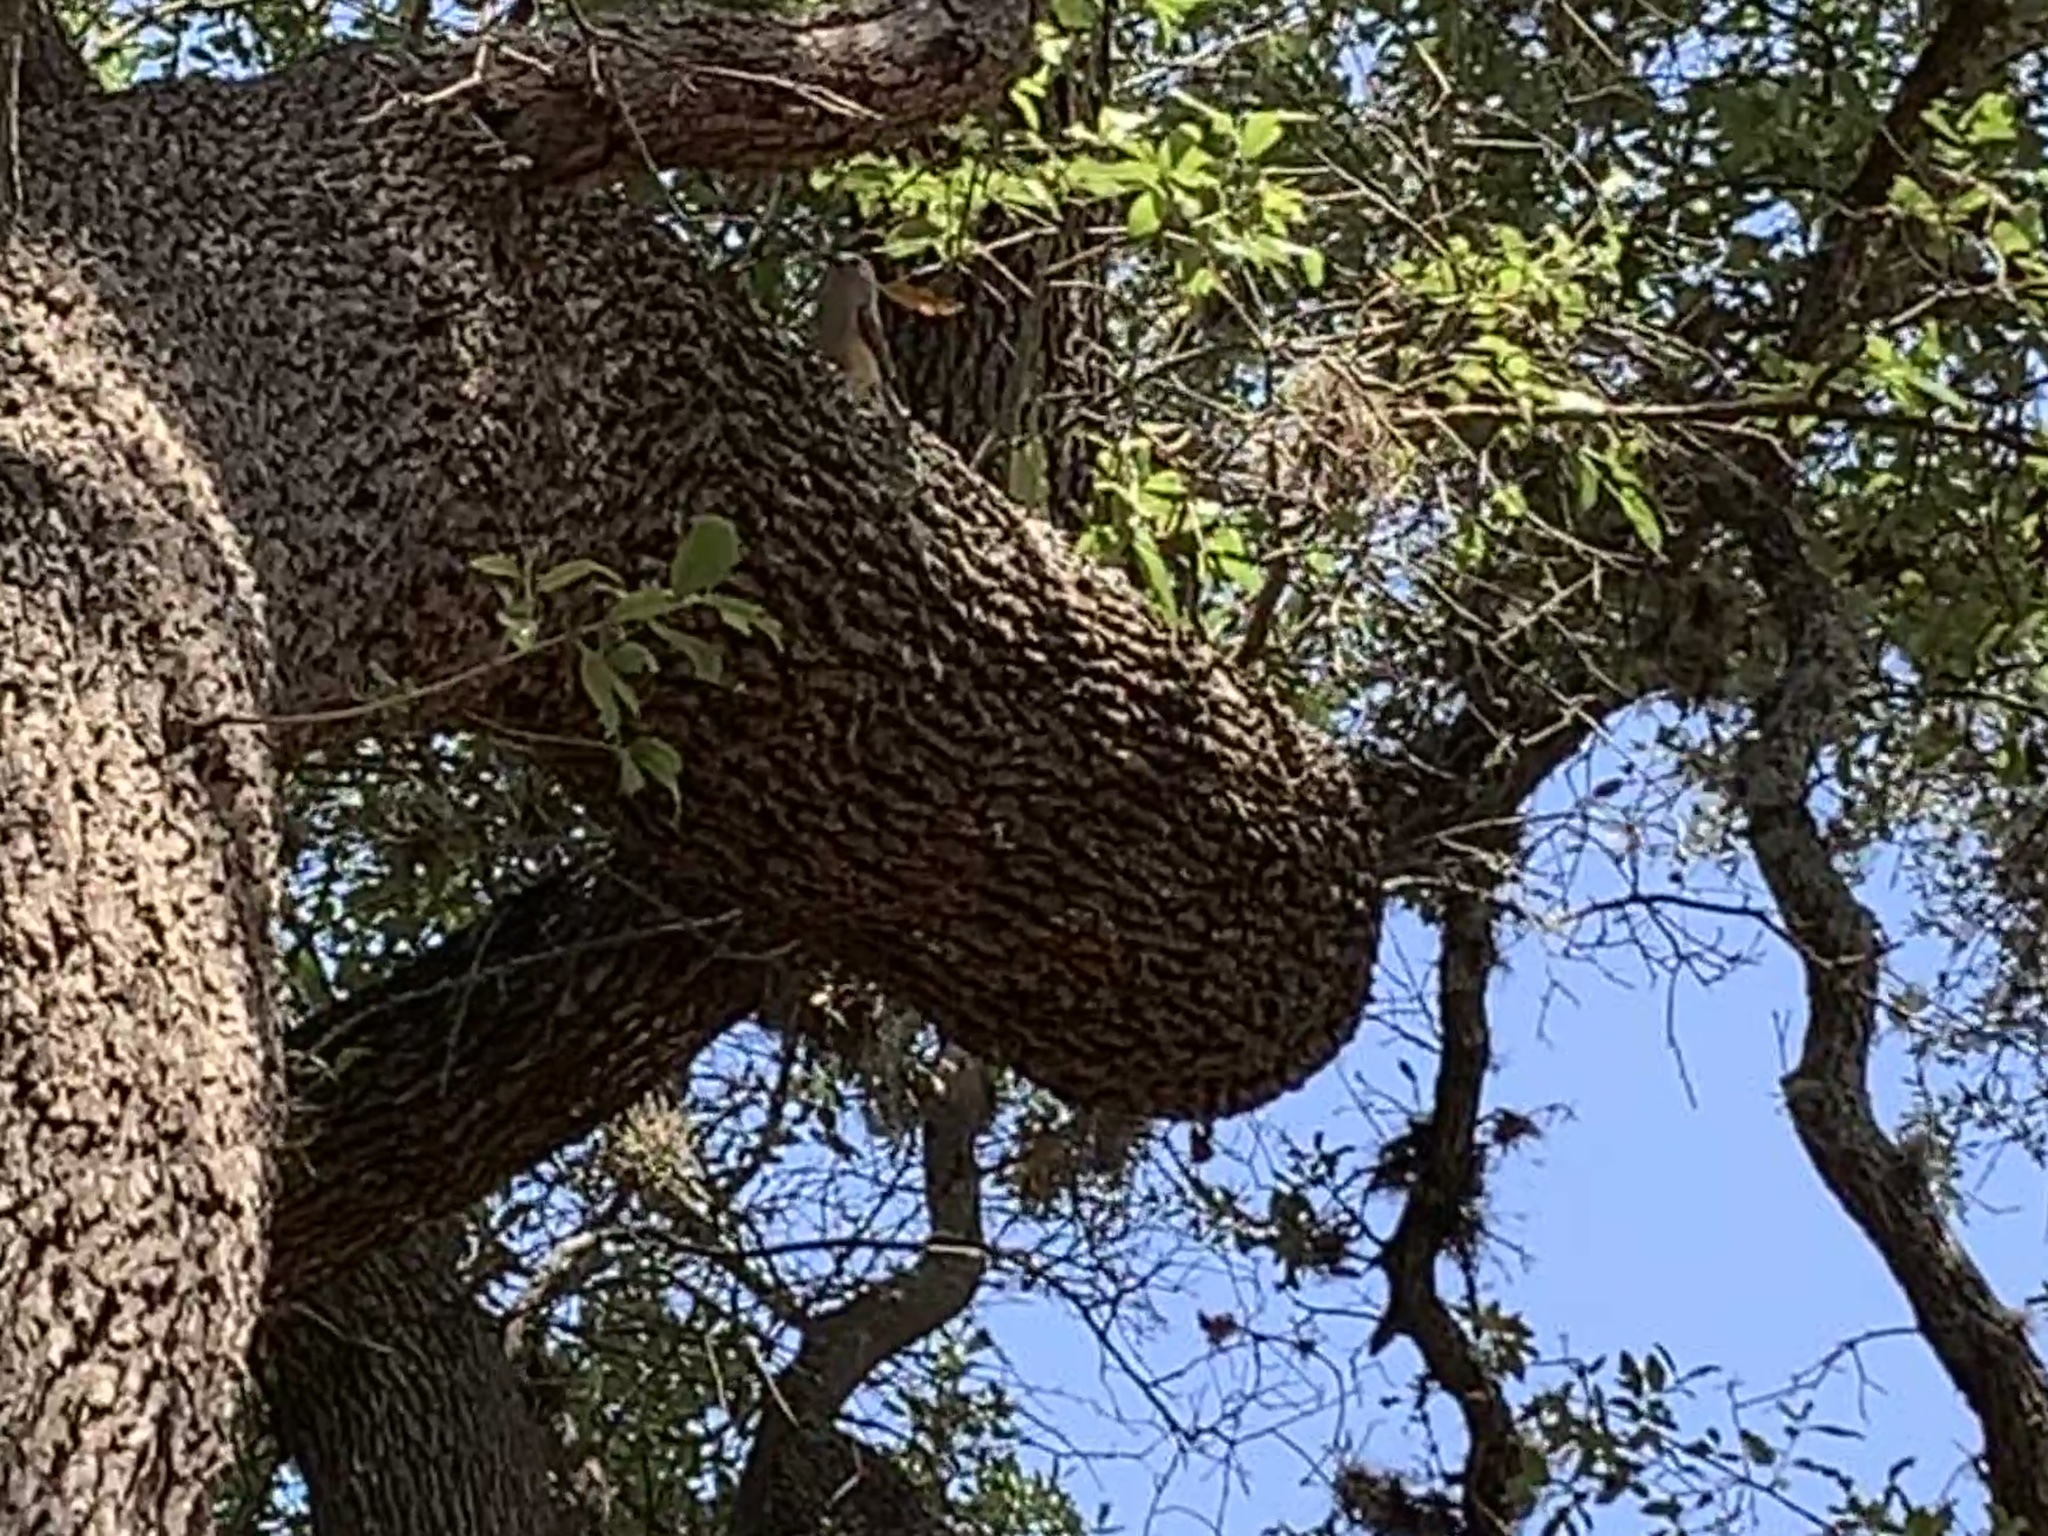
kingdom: Animalia
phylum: Chordata
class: Aves
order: Passeriformes
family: Paridae
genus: Baeolophus
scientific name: Baeolophus atricristatus
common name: Black-crested titmouse
